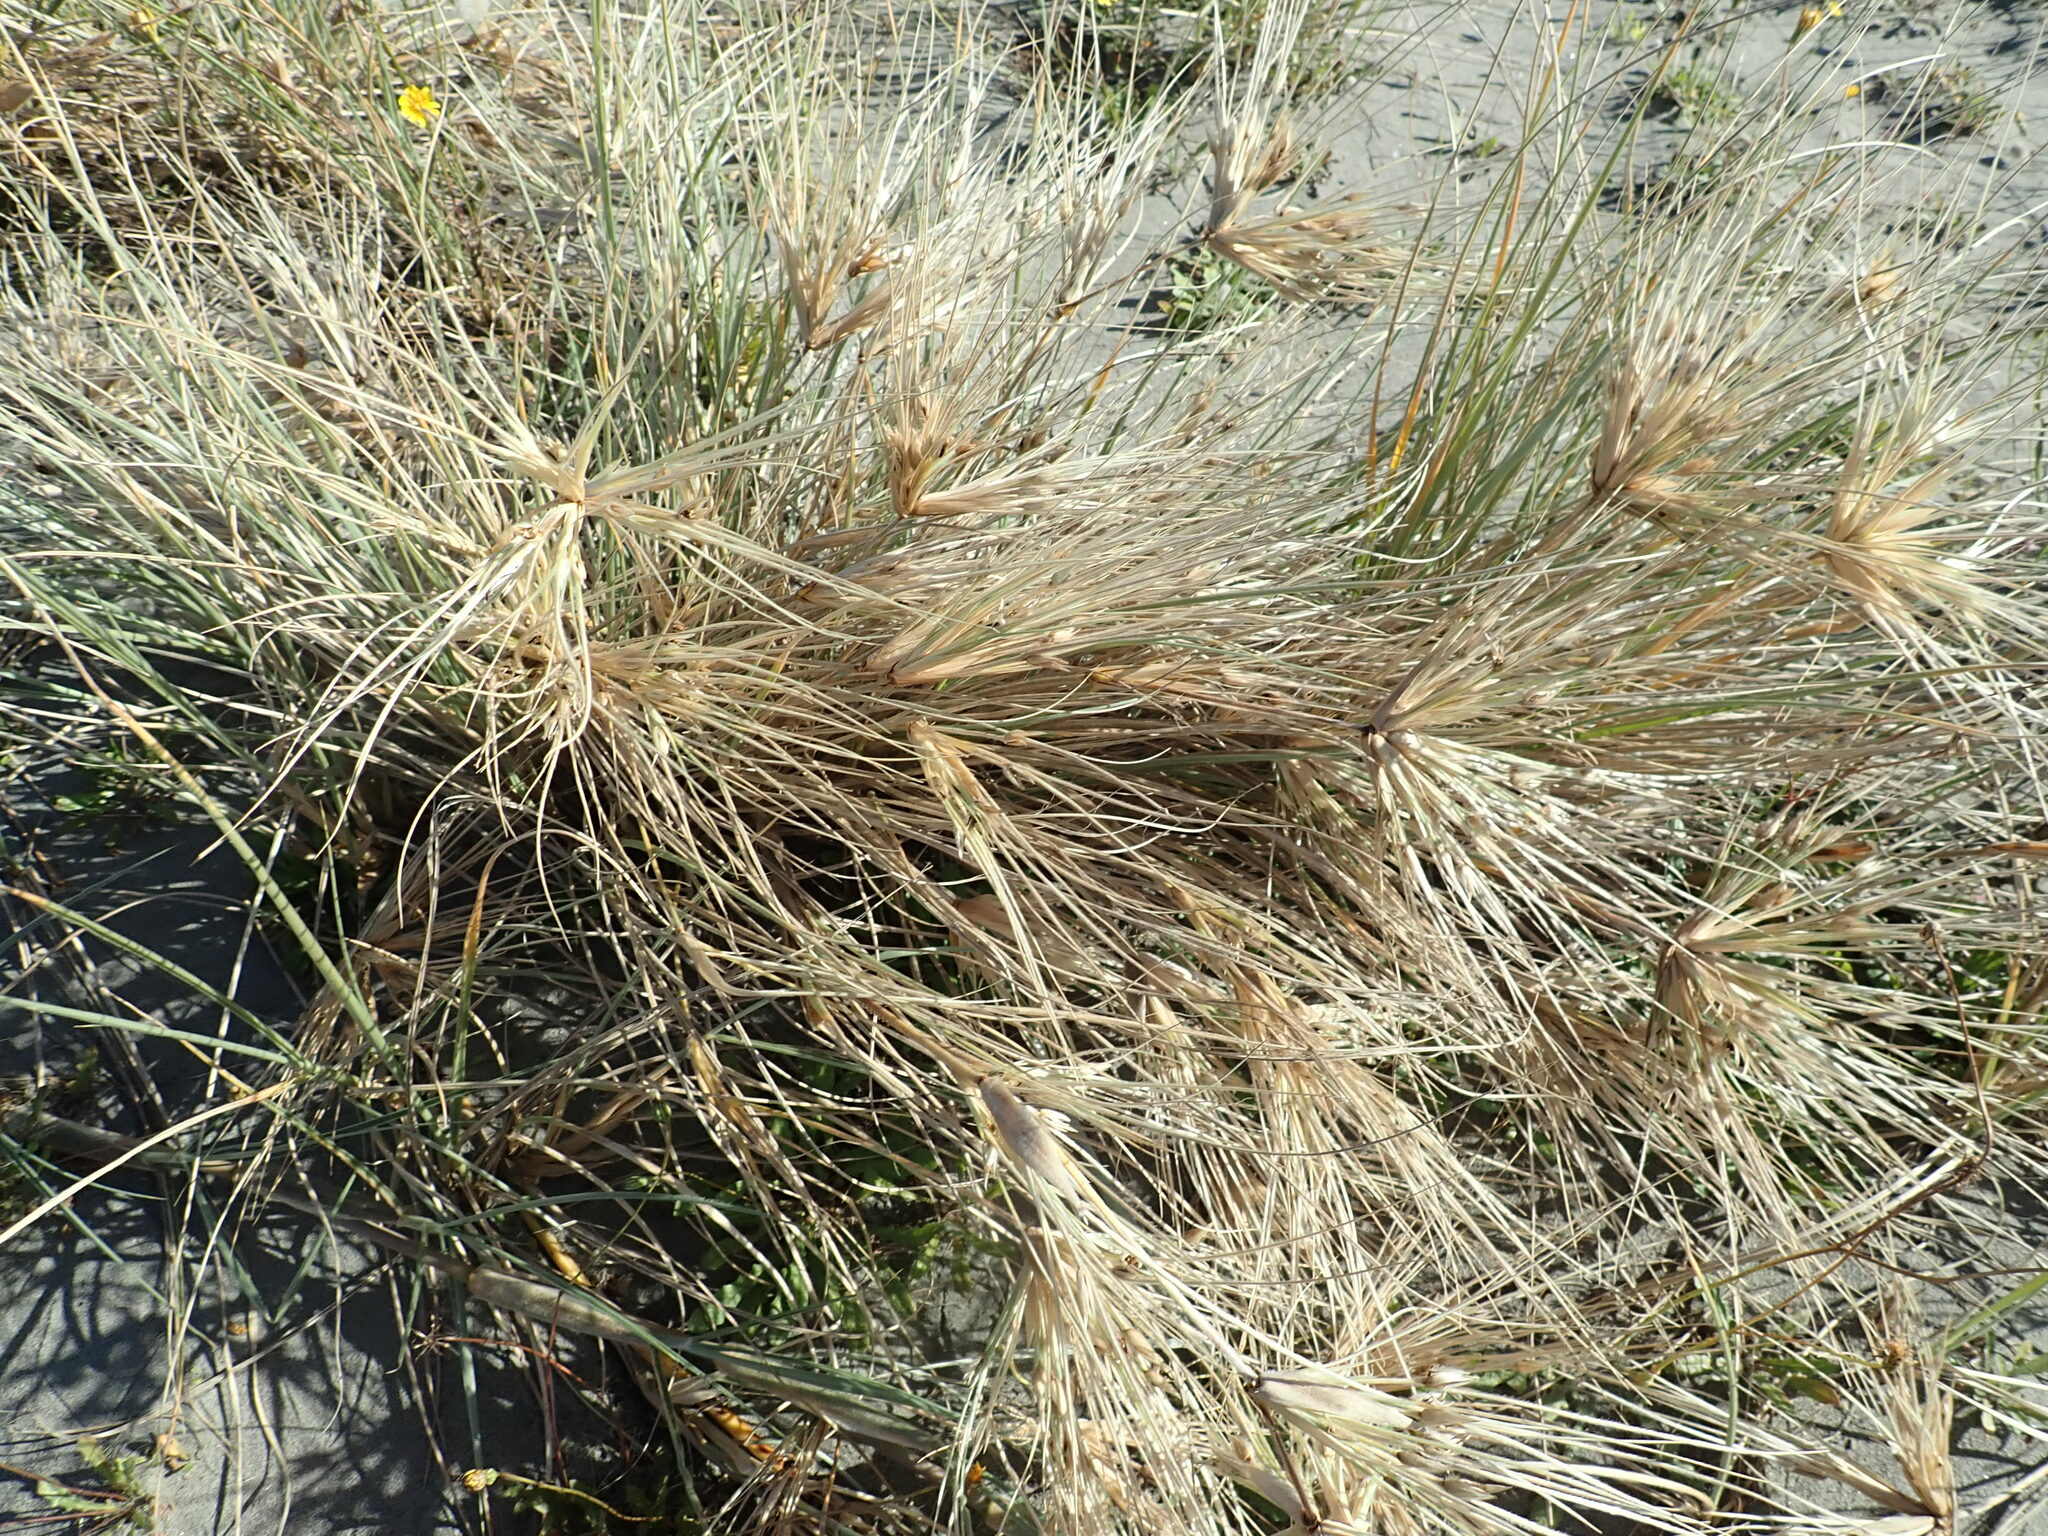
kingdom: Plantae
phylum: Tracheophyta
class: Liliopsida
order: Poales
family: Poaceae
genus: Spinifex
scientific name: Spinifex sericeus
